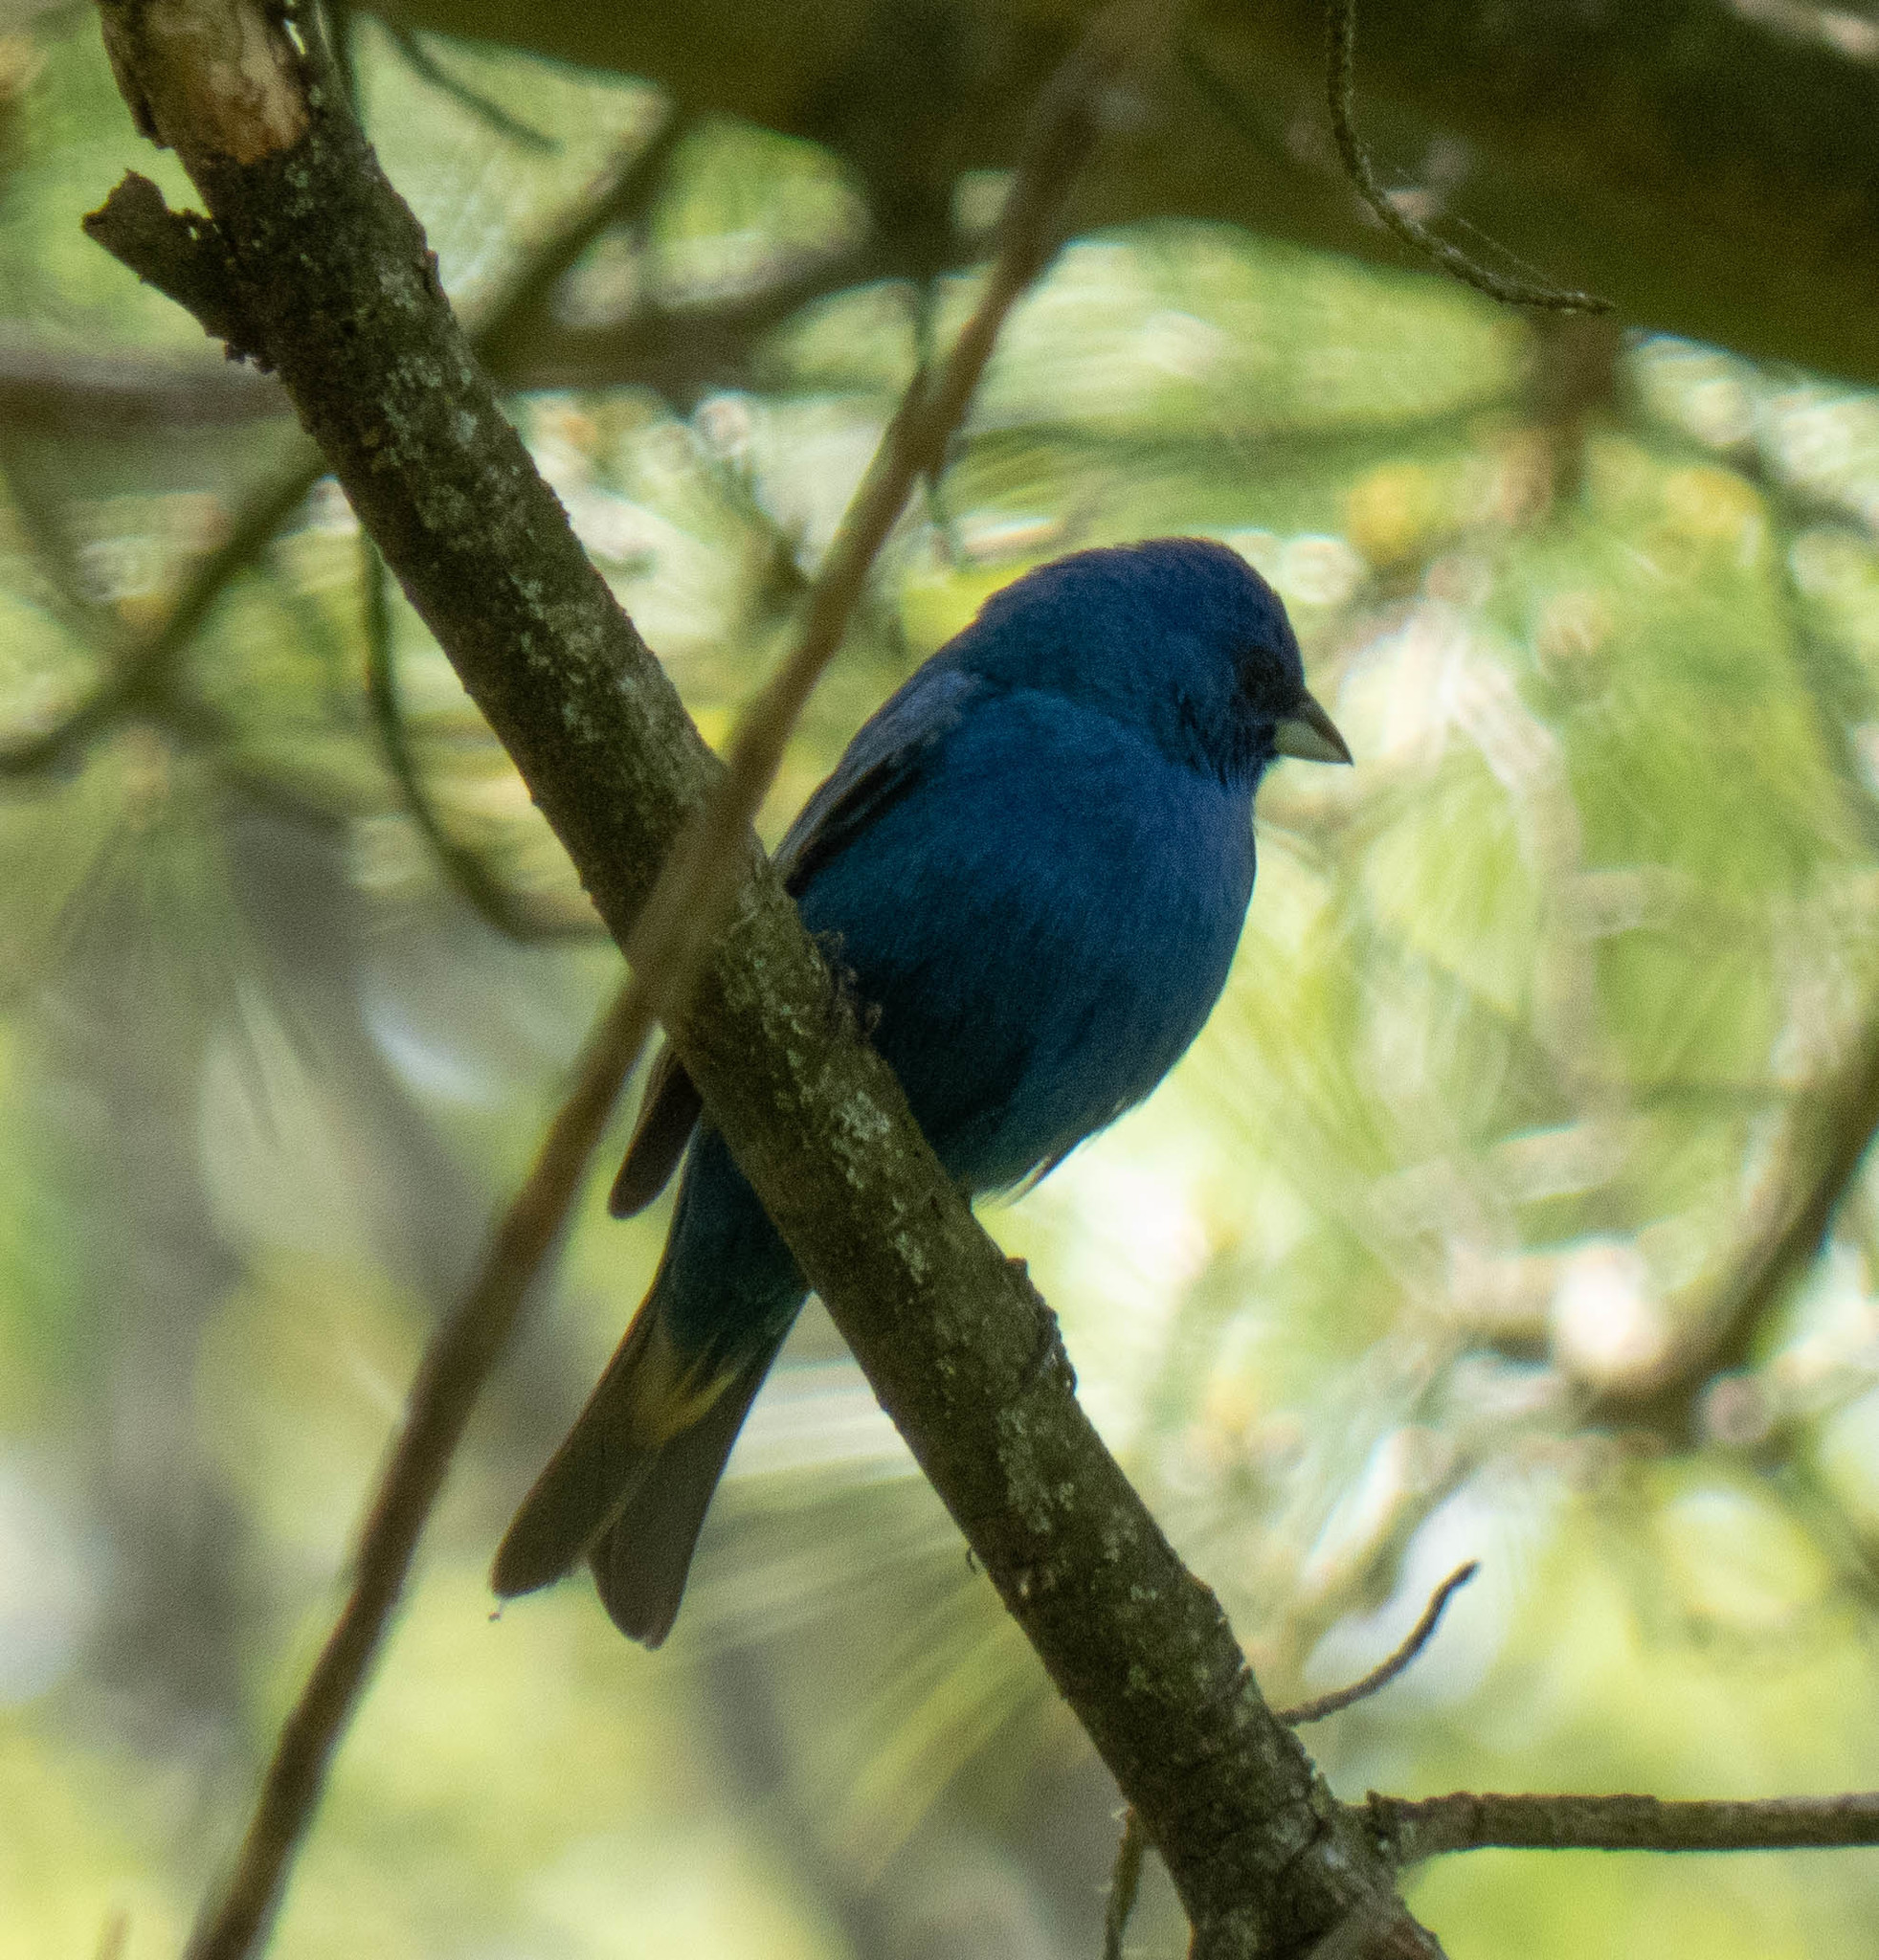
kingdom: Animalia
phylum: Chordata
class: Aves
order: Passeriformes
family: Cardinalidae
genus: Passerina
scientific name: Passerina cyanea
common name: Indigo bunting
